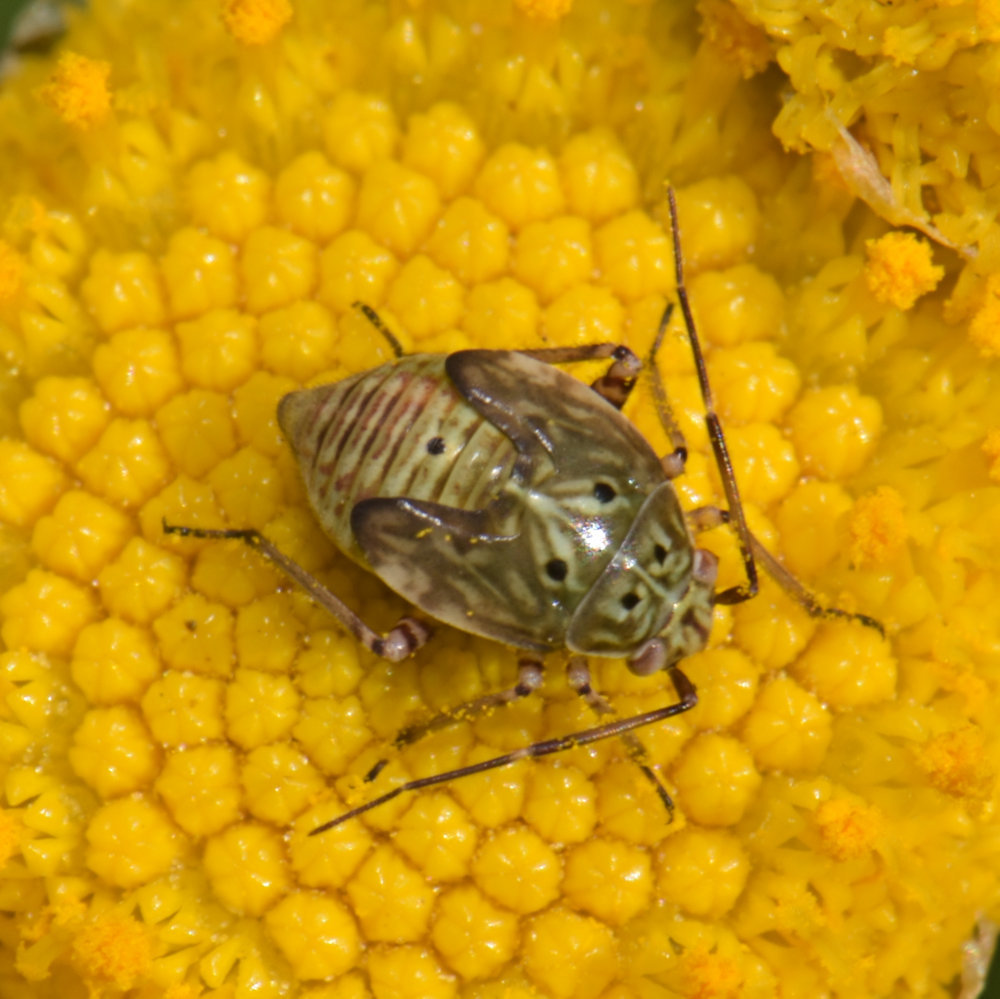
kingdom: Animalia
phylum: Arthropoda
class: Insecta
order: Hemiptera
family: Miridae
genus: Lygus
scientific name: Lygus lineolaris
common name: North american tarnished plant bug
